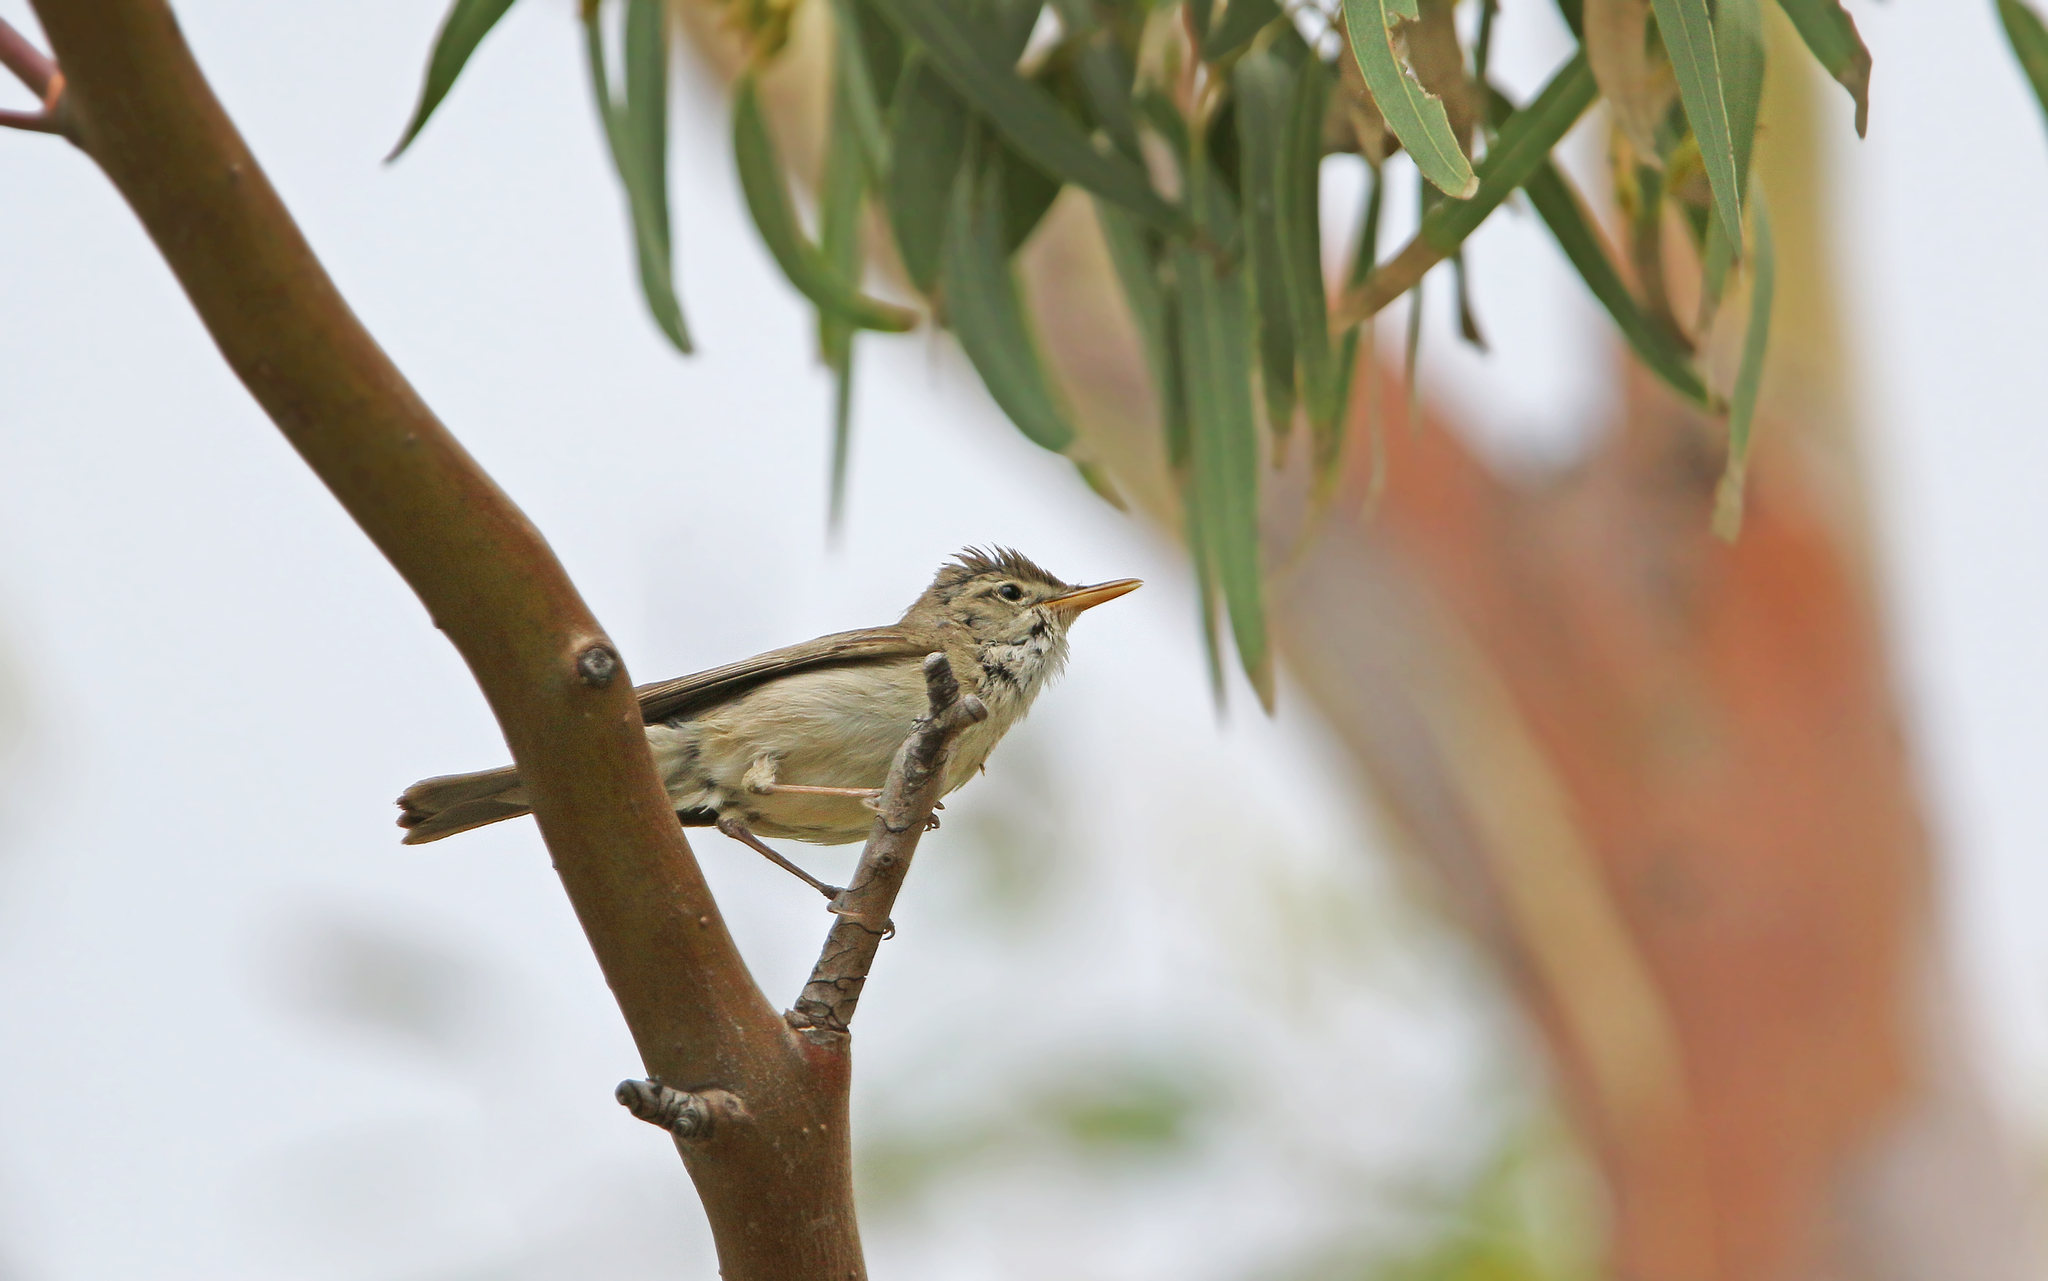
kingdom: Animalia
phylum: Chordata
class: Aves
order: Passeriformes
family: Acrocephalidae
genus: Iduna
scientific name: Iduna pallida
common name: Eastern olivaceous warbler
